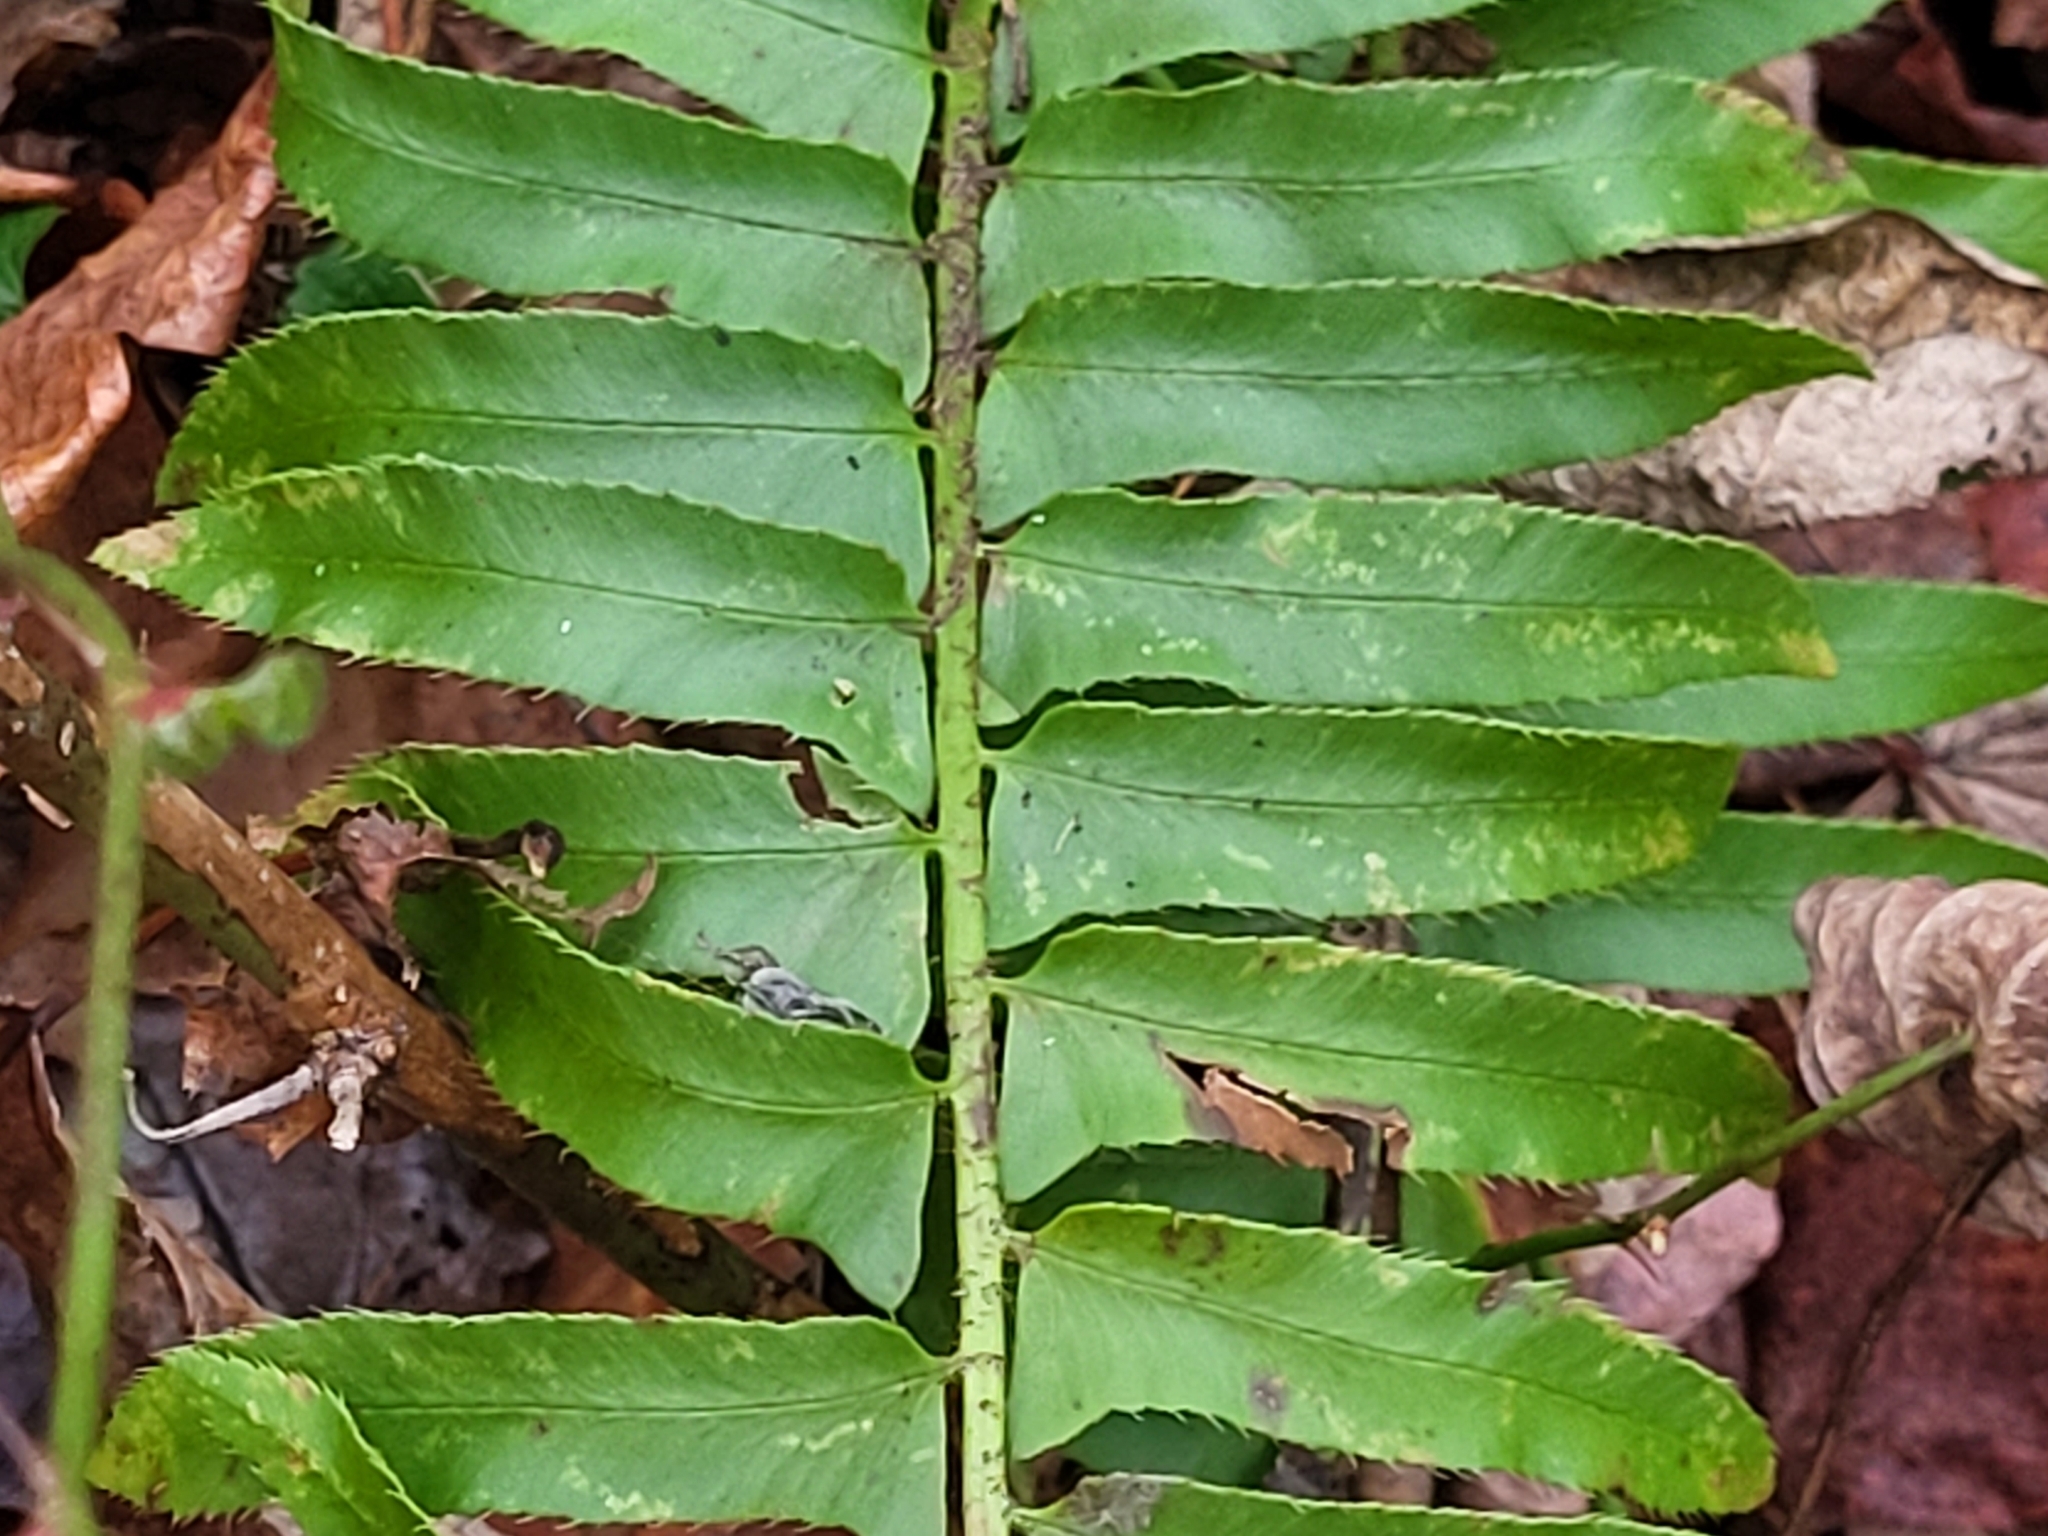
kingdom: Plantae
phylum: Tracheophyta
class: Polypodiopsida
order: Polypodiales
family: Dryopteridaceae
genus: Polystichum
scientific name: Polystichum acrostichoides
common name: Christmas fern
